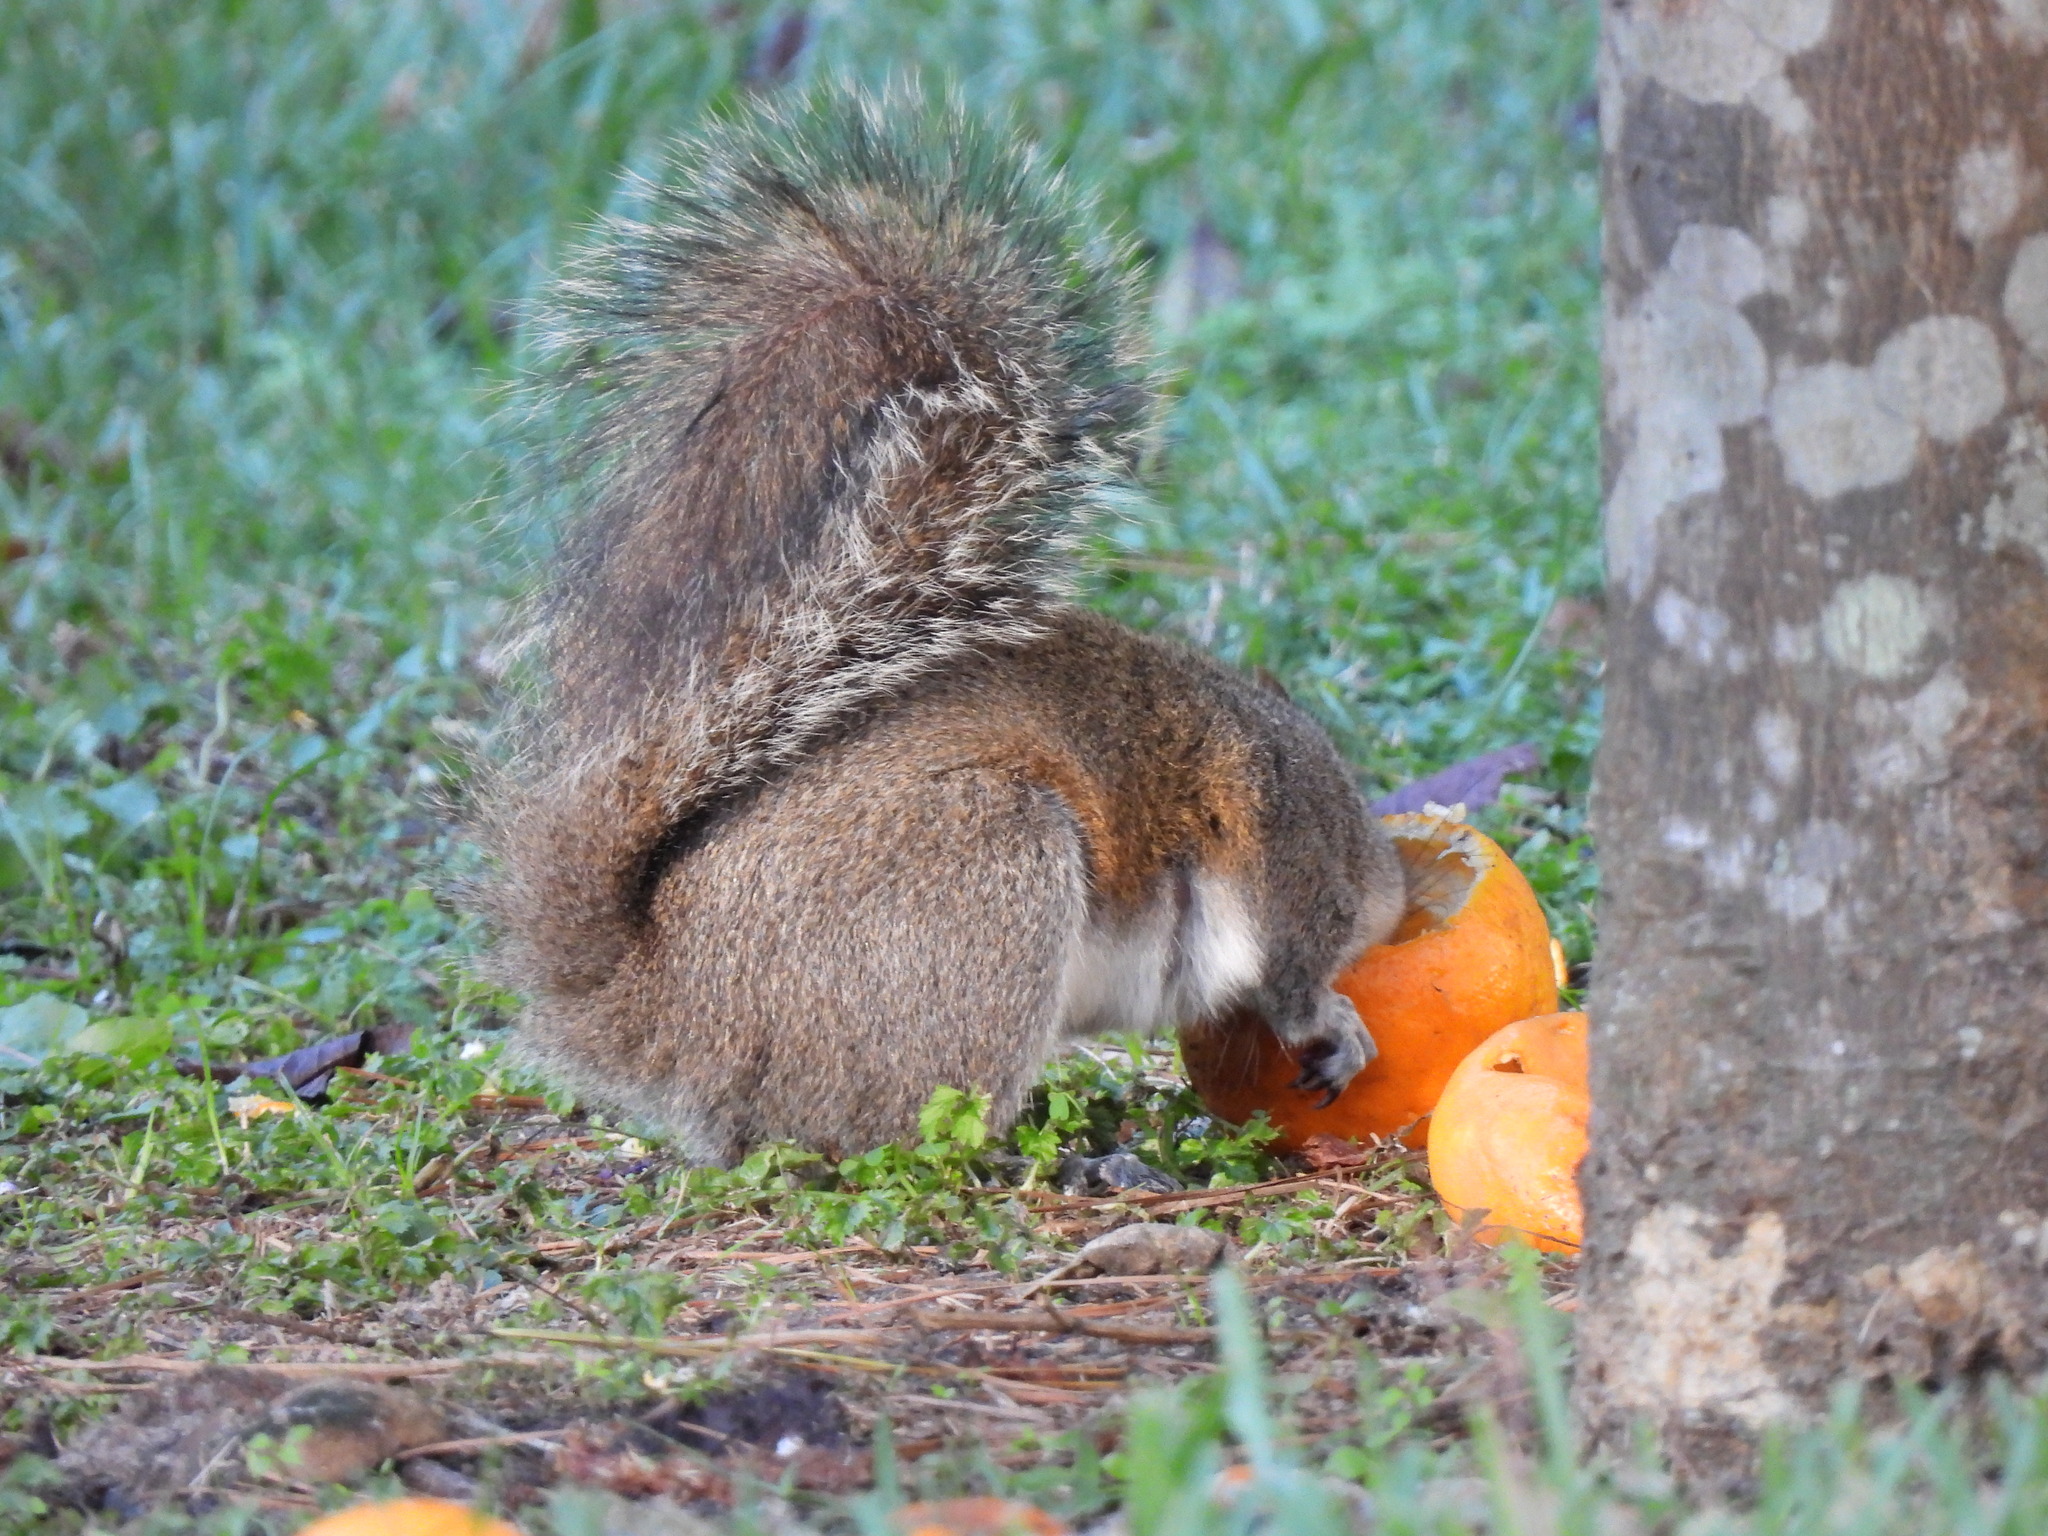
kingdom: Animalia
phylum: Chordata
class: Mammalia
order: Rodentia
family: Sciuridae
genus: Sciurus
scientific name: Sciurus carolinensis
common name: Eastern gray squirrel
